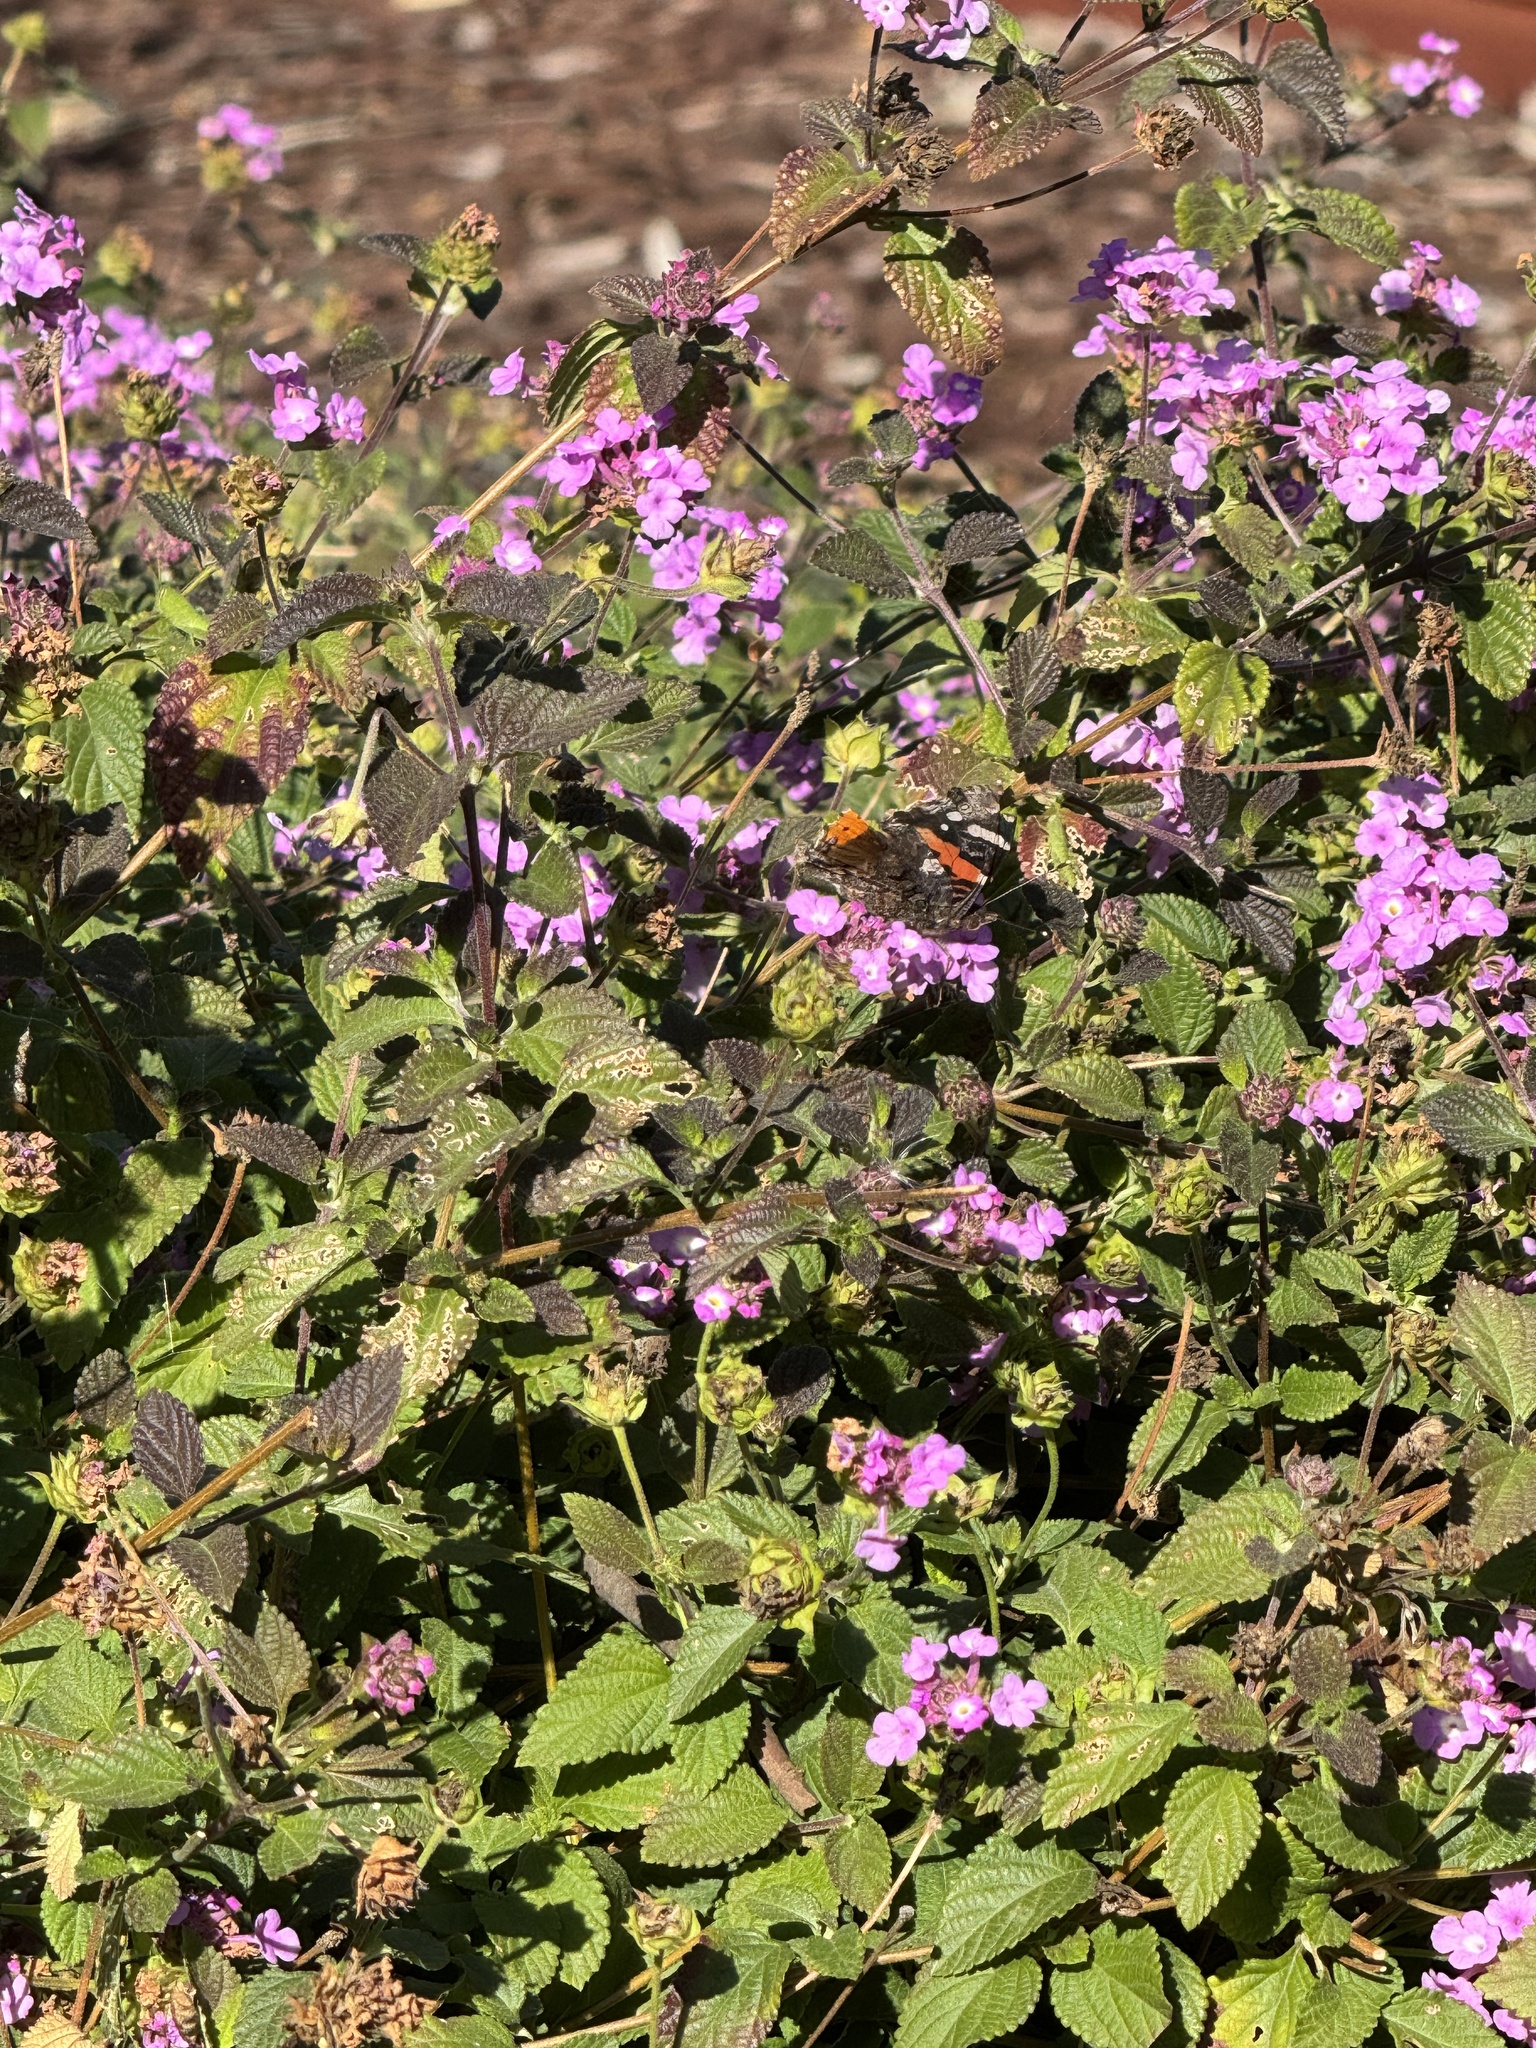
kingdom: Animalia
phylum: Arthropoda
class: Insecta
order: Lepidoptera
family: Nymphalidae
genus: Vanessa
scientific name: Vanessa atalanta
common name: Red admiral
